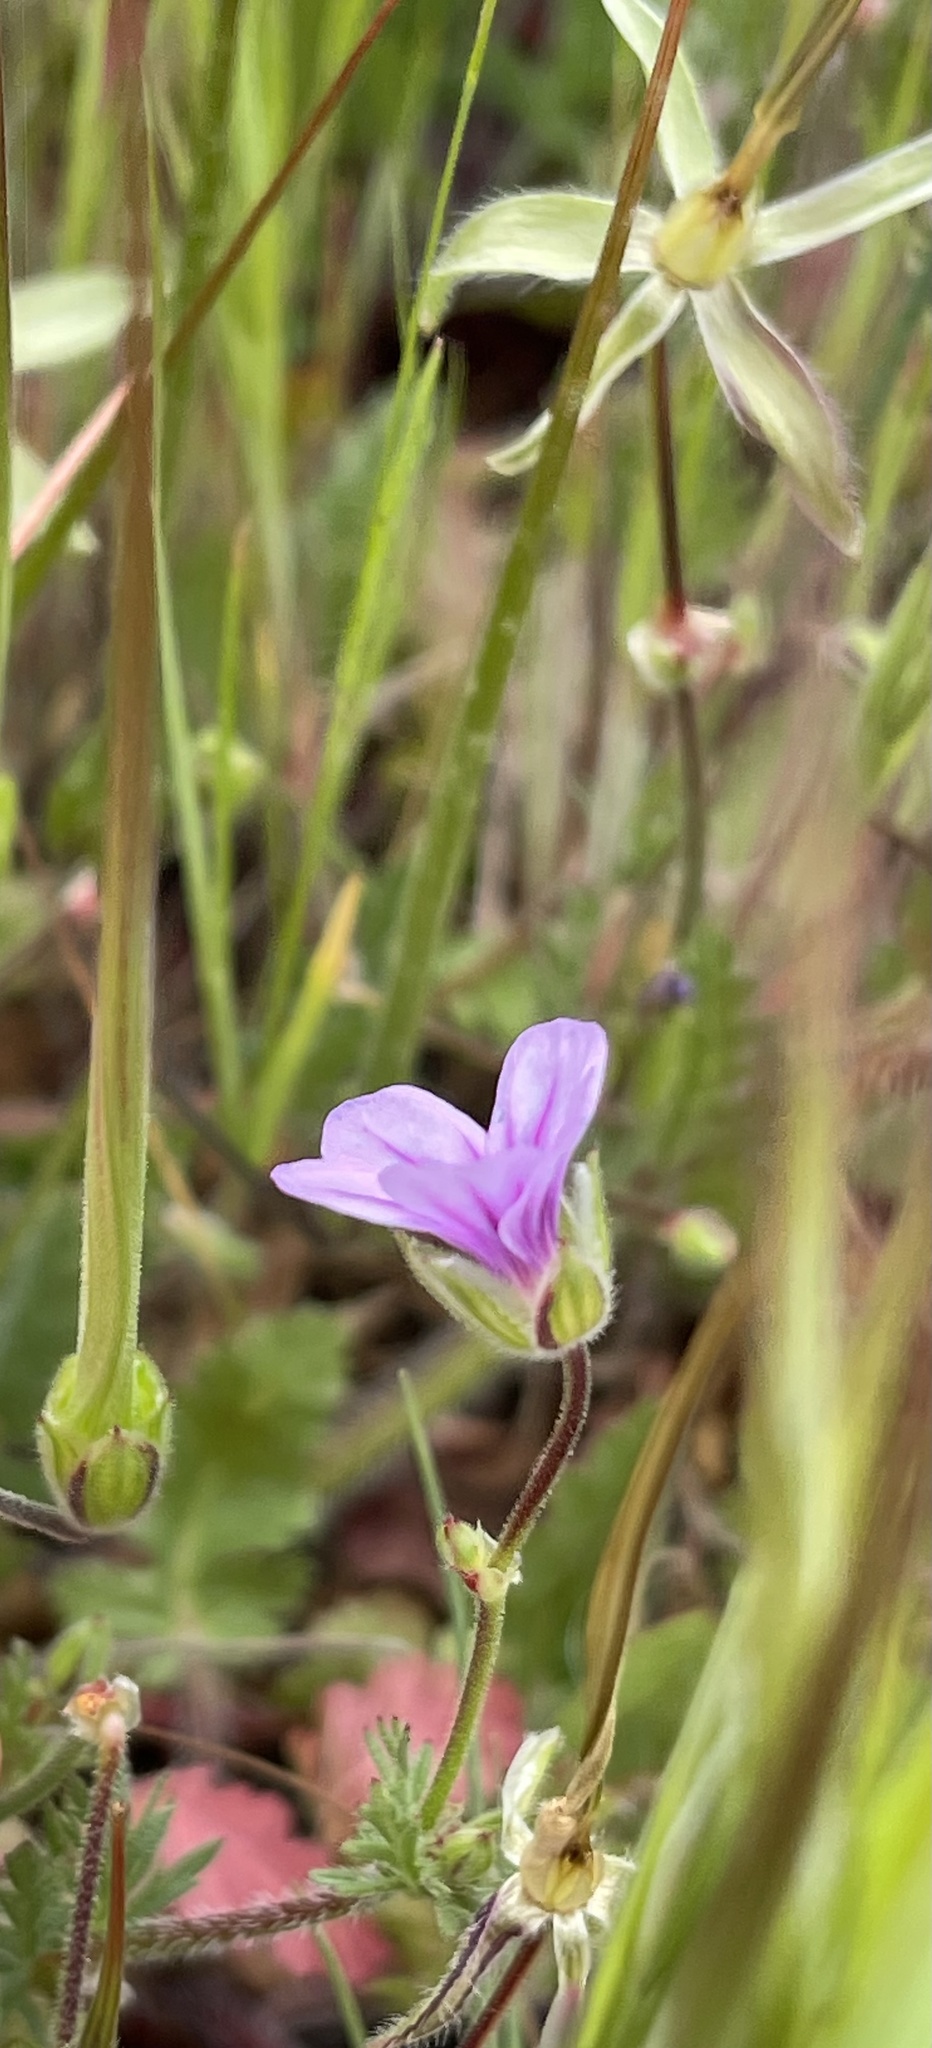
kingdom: Plantae
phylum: Tracheophyta
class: Magnoliopsida
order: Geraniales
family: Geraniaceae
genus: Erodium
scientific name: Erodium botrys
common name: Mediterranean stork's-bill
